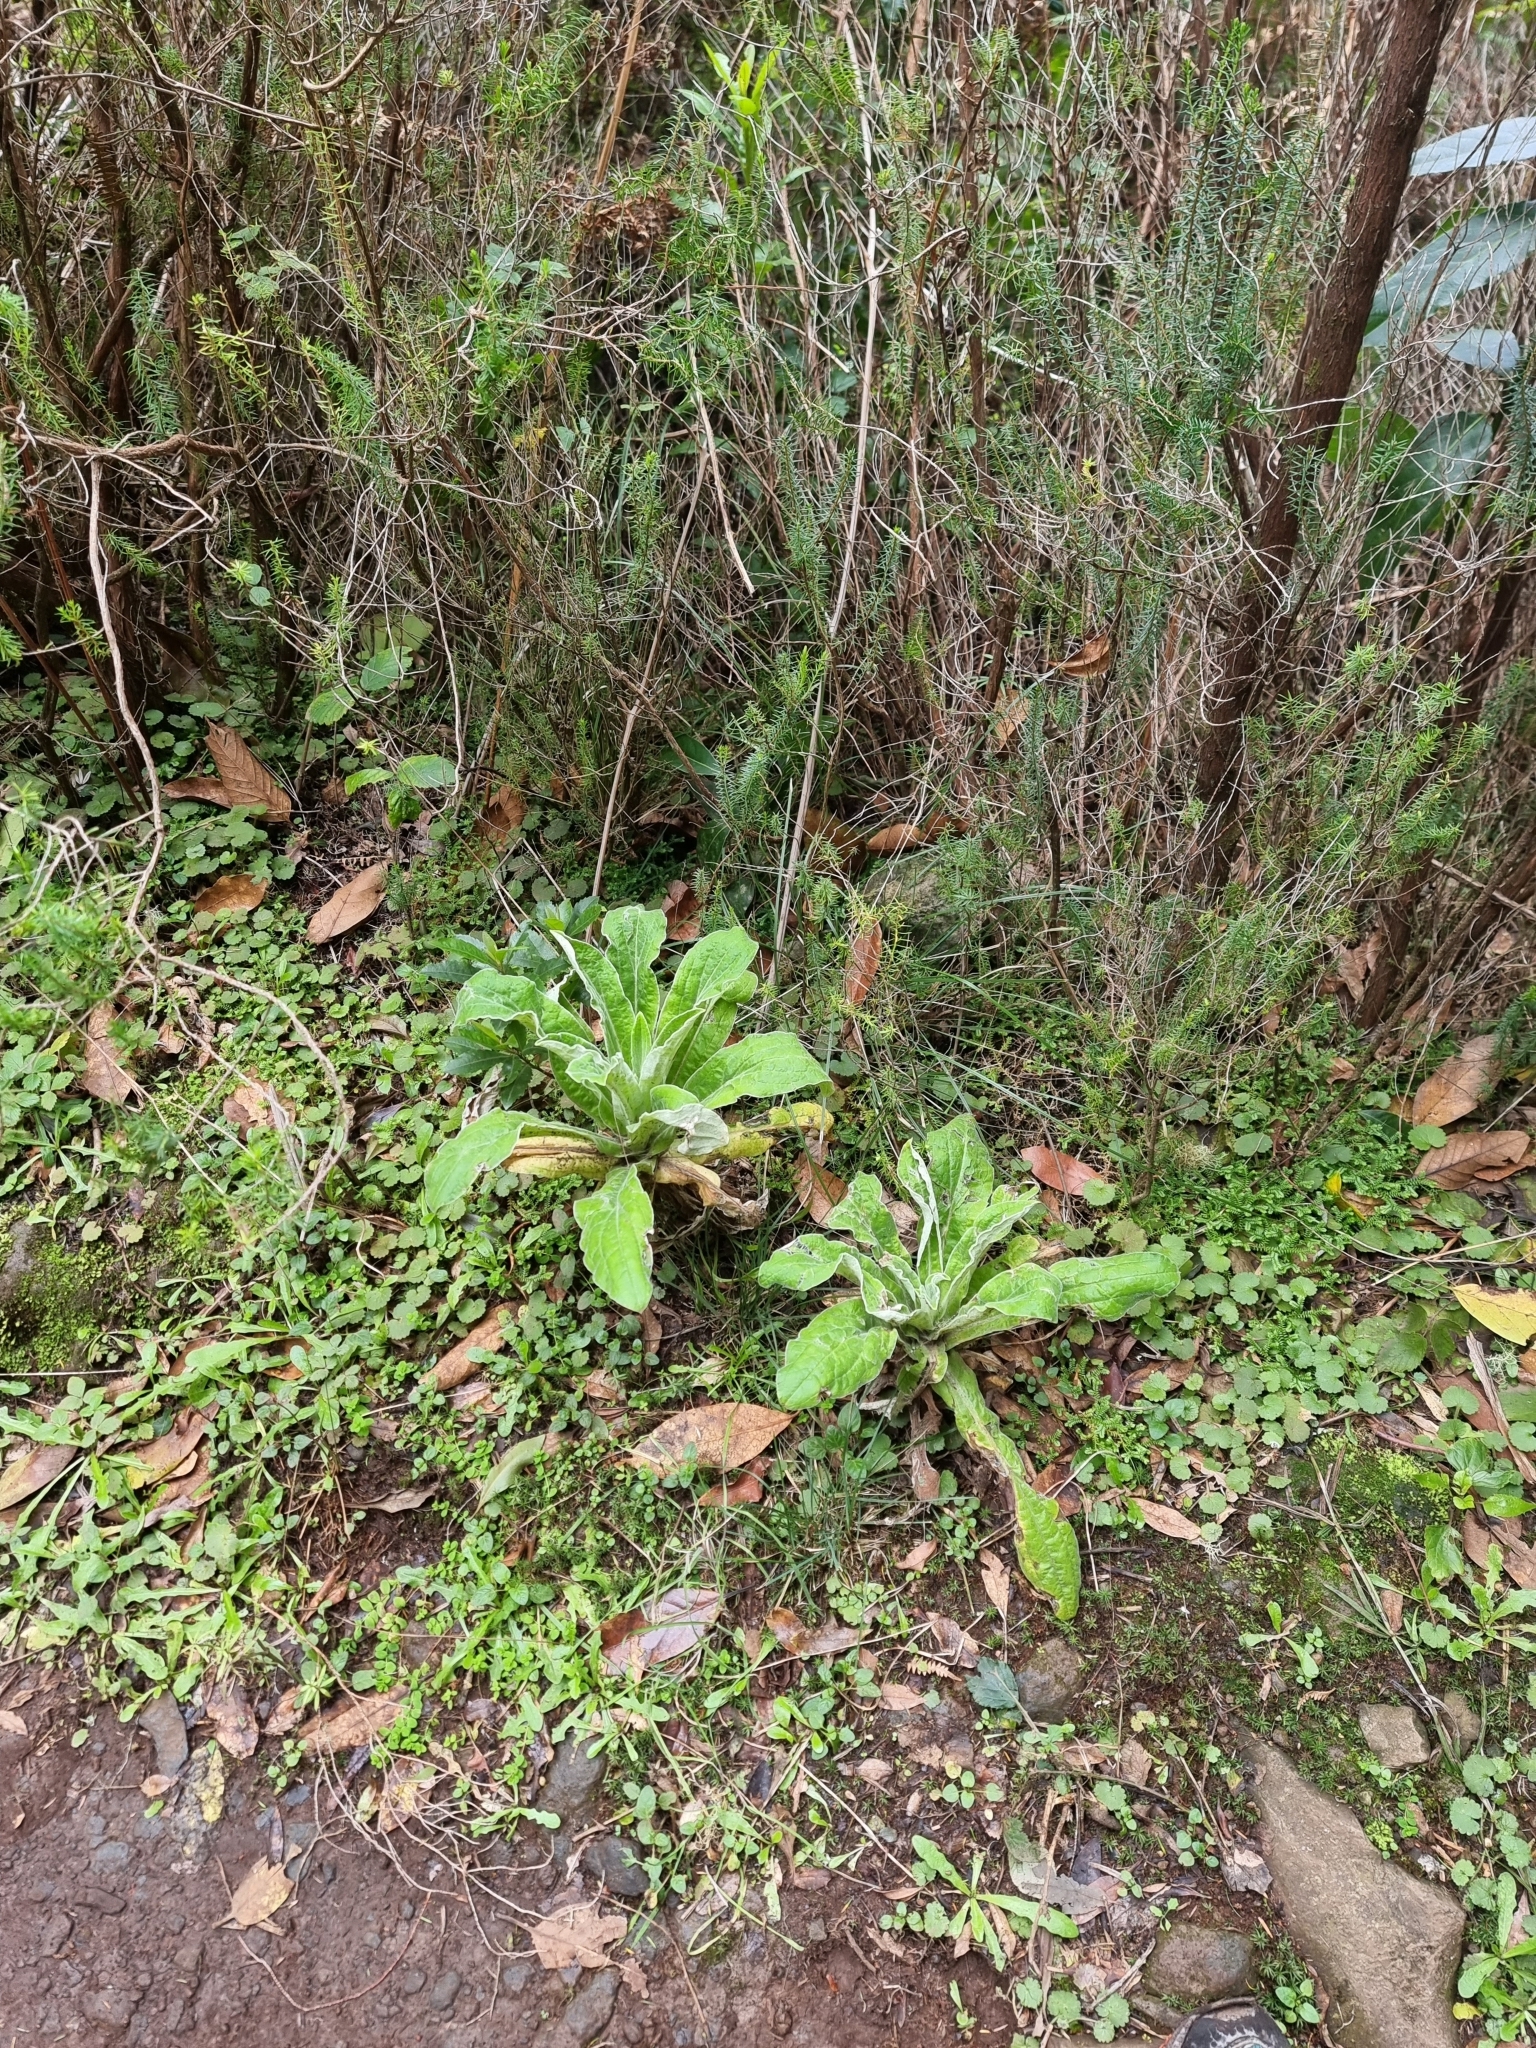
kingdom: Plantae
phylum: Tracheophyta
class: Magnoliopsida
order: Asterales
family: Asteraceae
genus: Helichrysum
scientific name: Helichrysum foetidum
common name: Stinking everlasting
